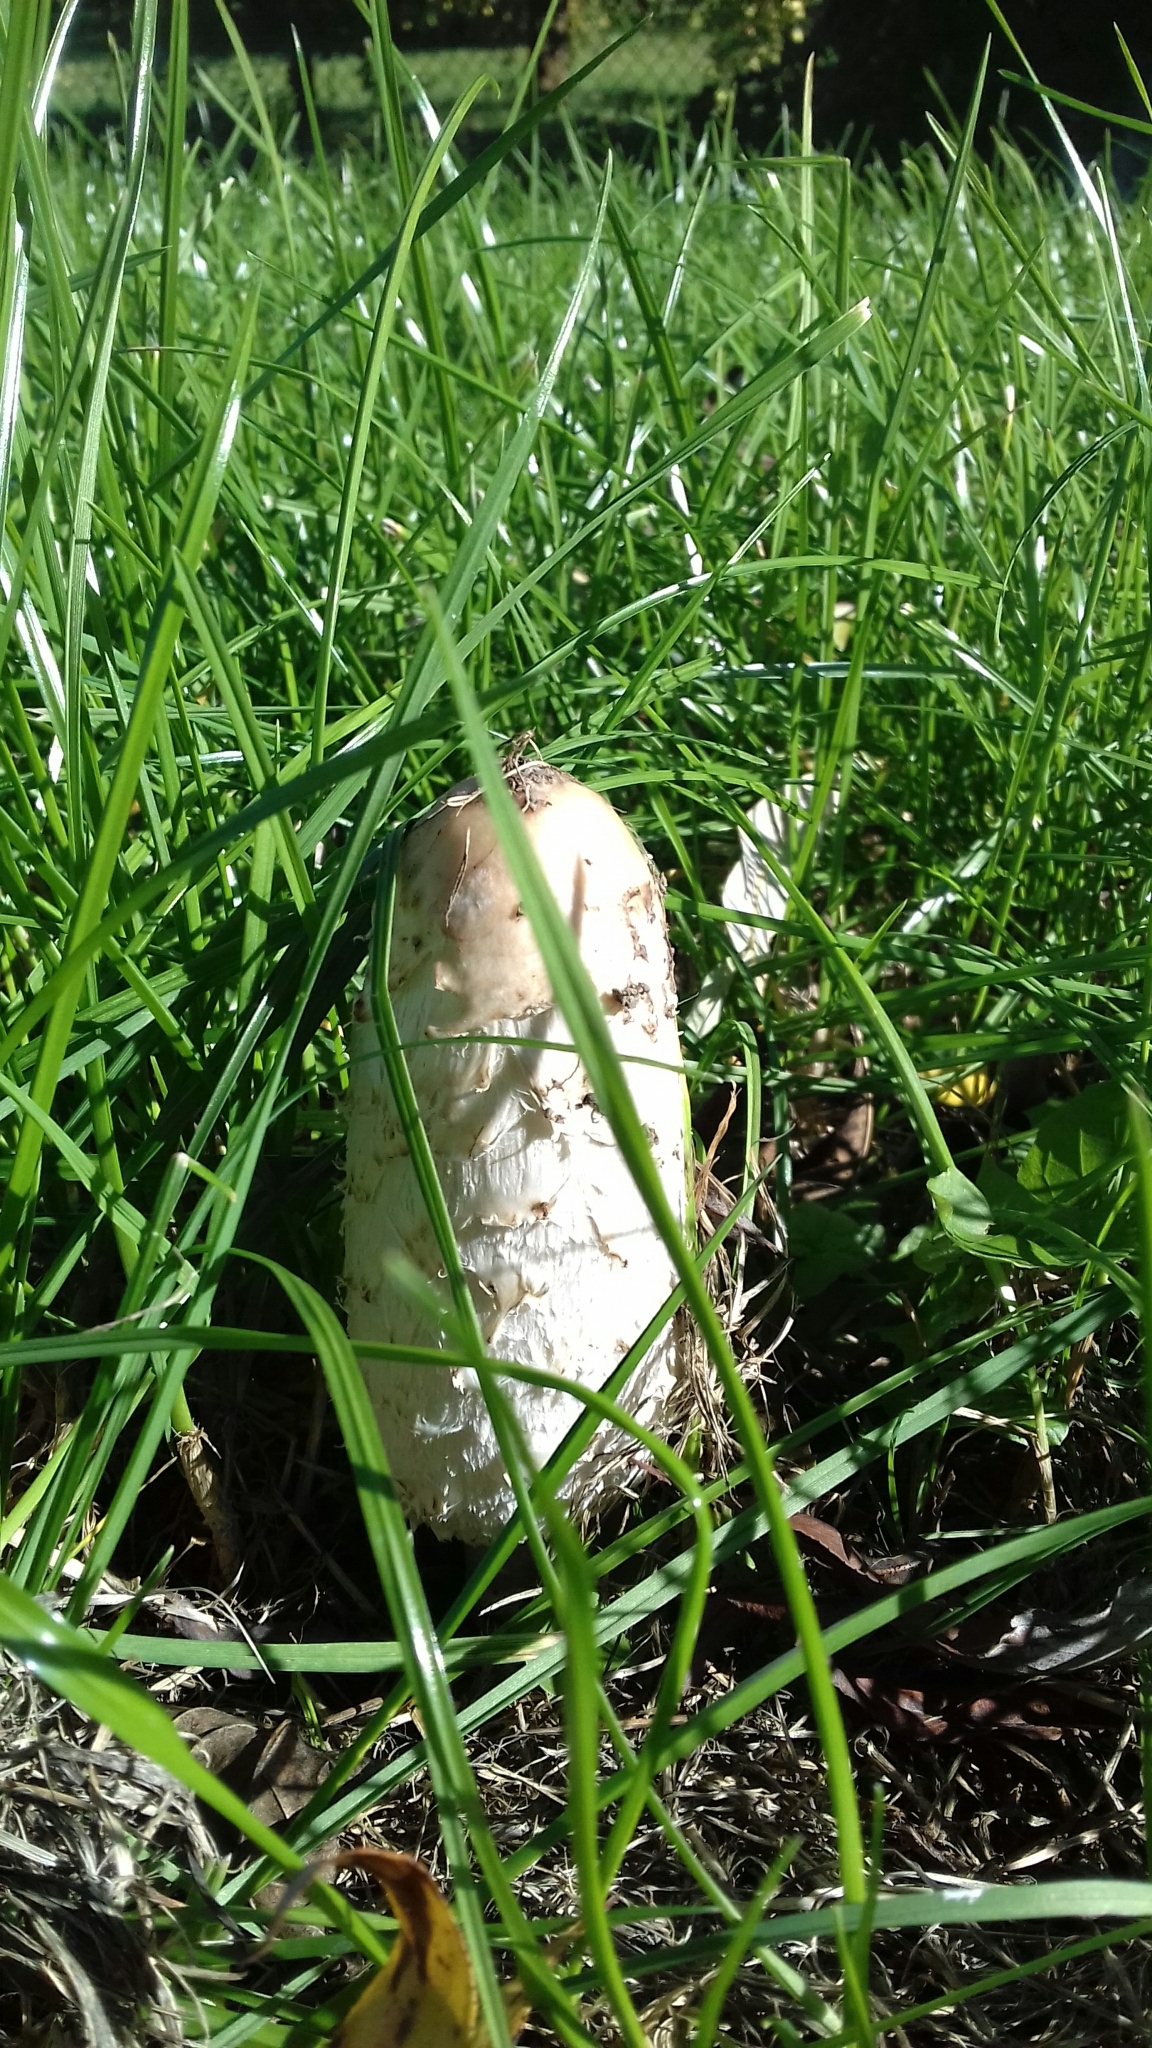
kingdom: Fungi
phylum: Basidiomycota
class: Agaricomycetes
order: Agaricales
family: Agaricaceae
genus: Coprinus
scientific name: Coprinus comatus
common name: Lawyer's wig
